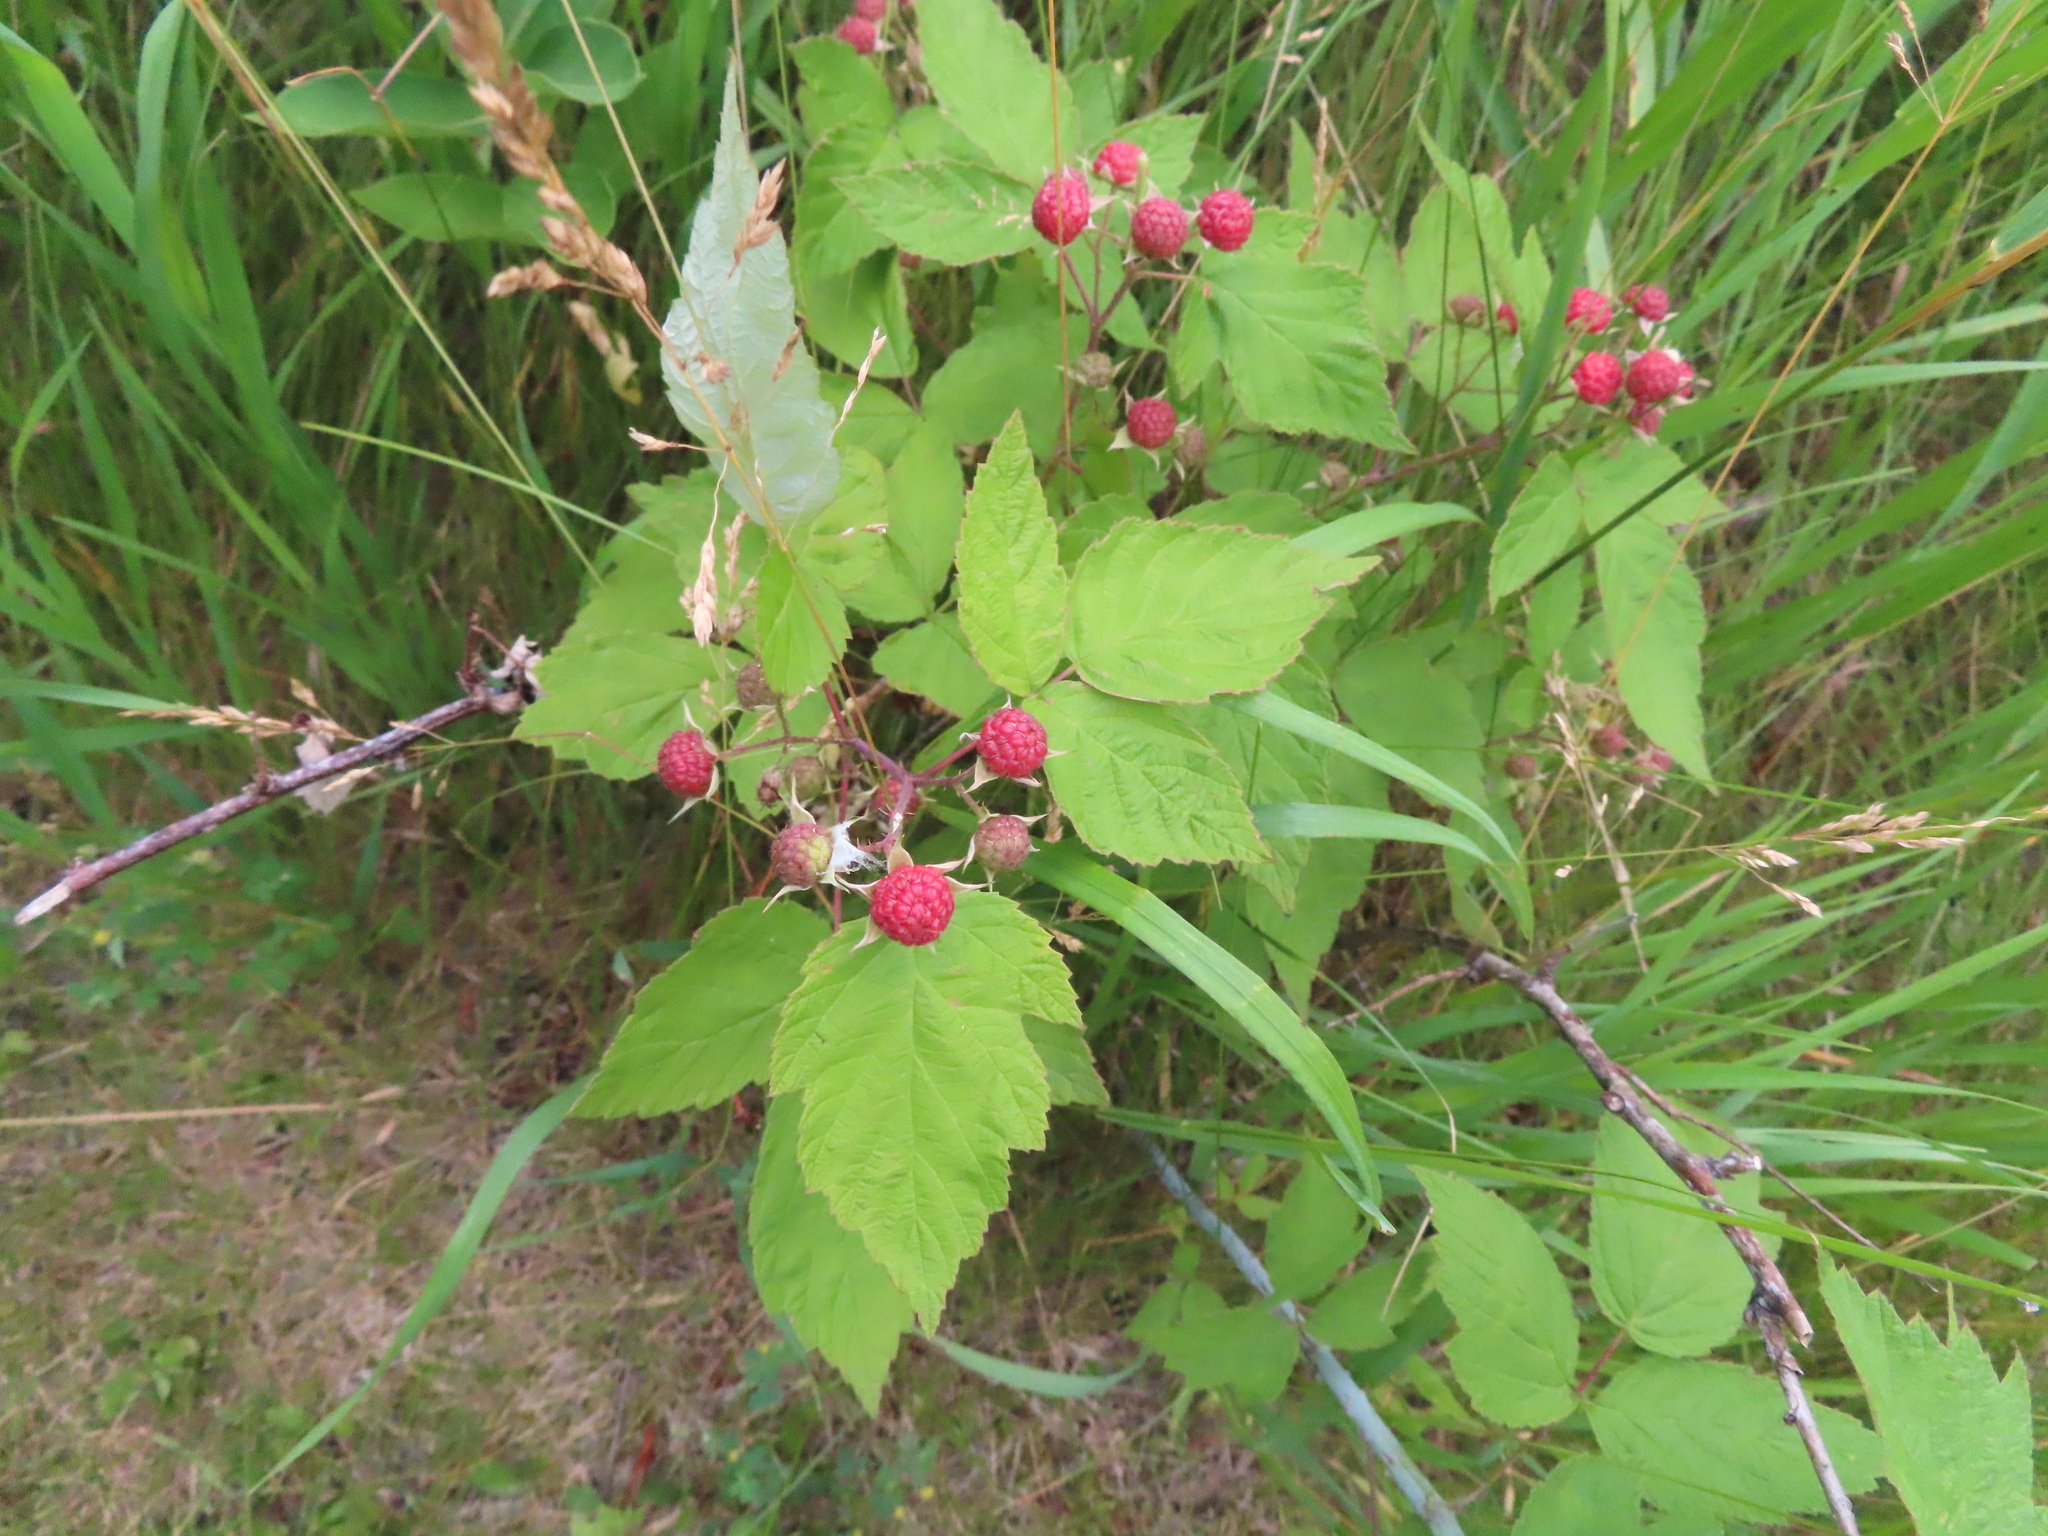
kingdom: Plantae
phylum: Tracheophyta
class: Magnoliopsida
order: Rosales
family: Rosaceae
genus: Rubus
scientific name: Rubus occidentalis
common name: Black raspberry
